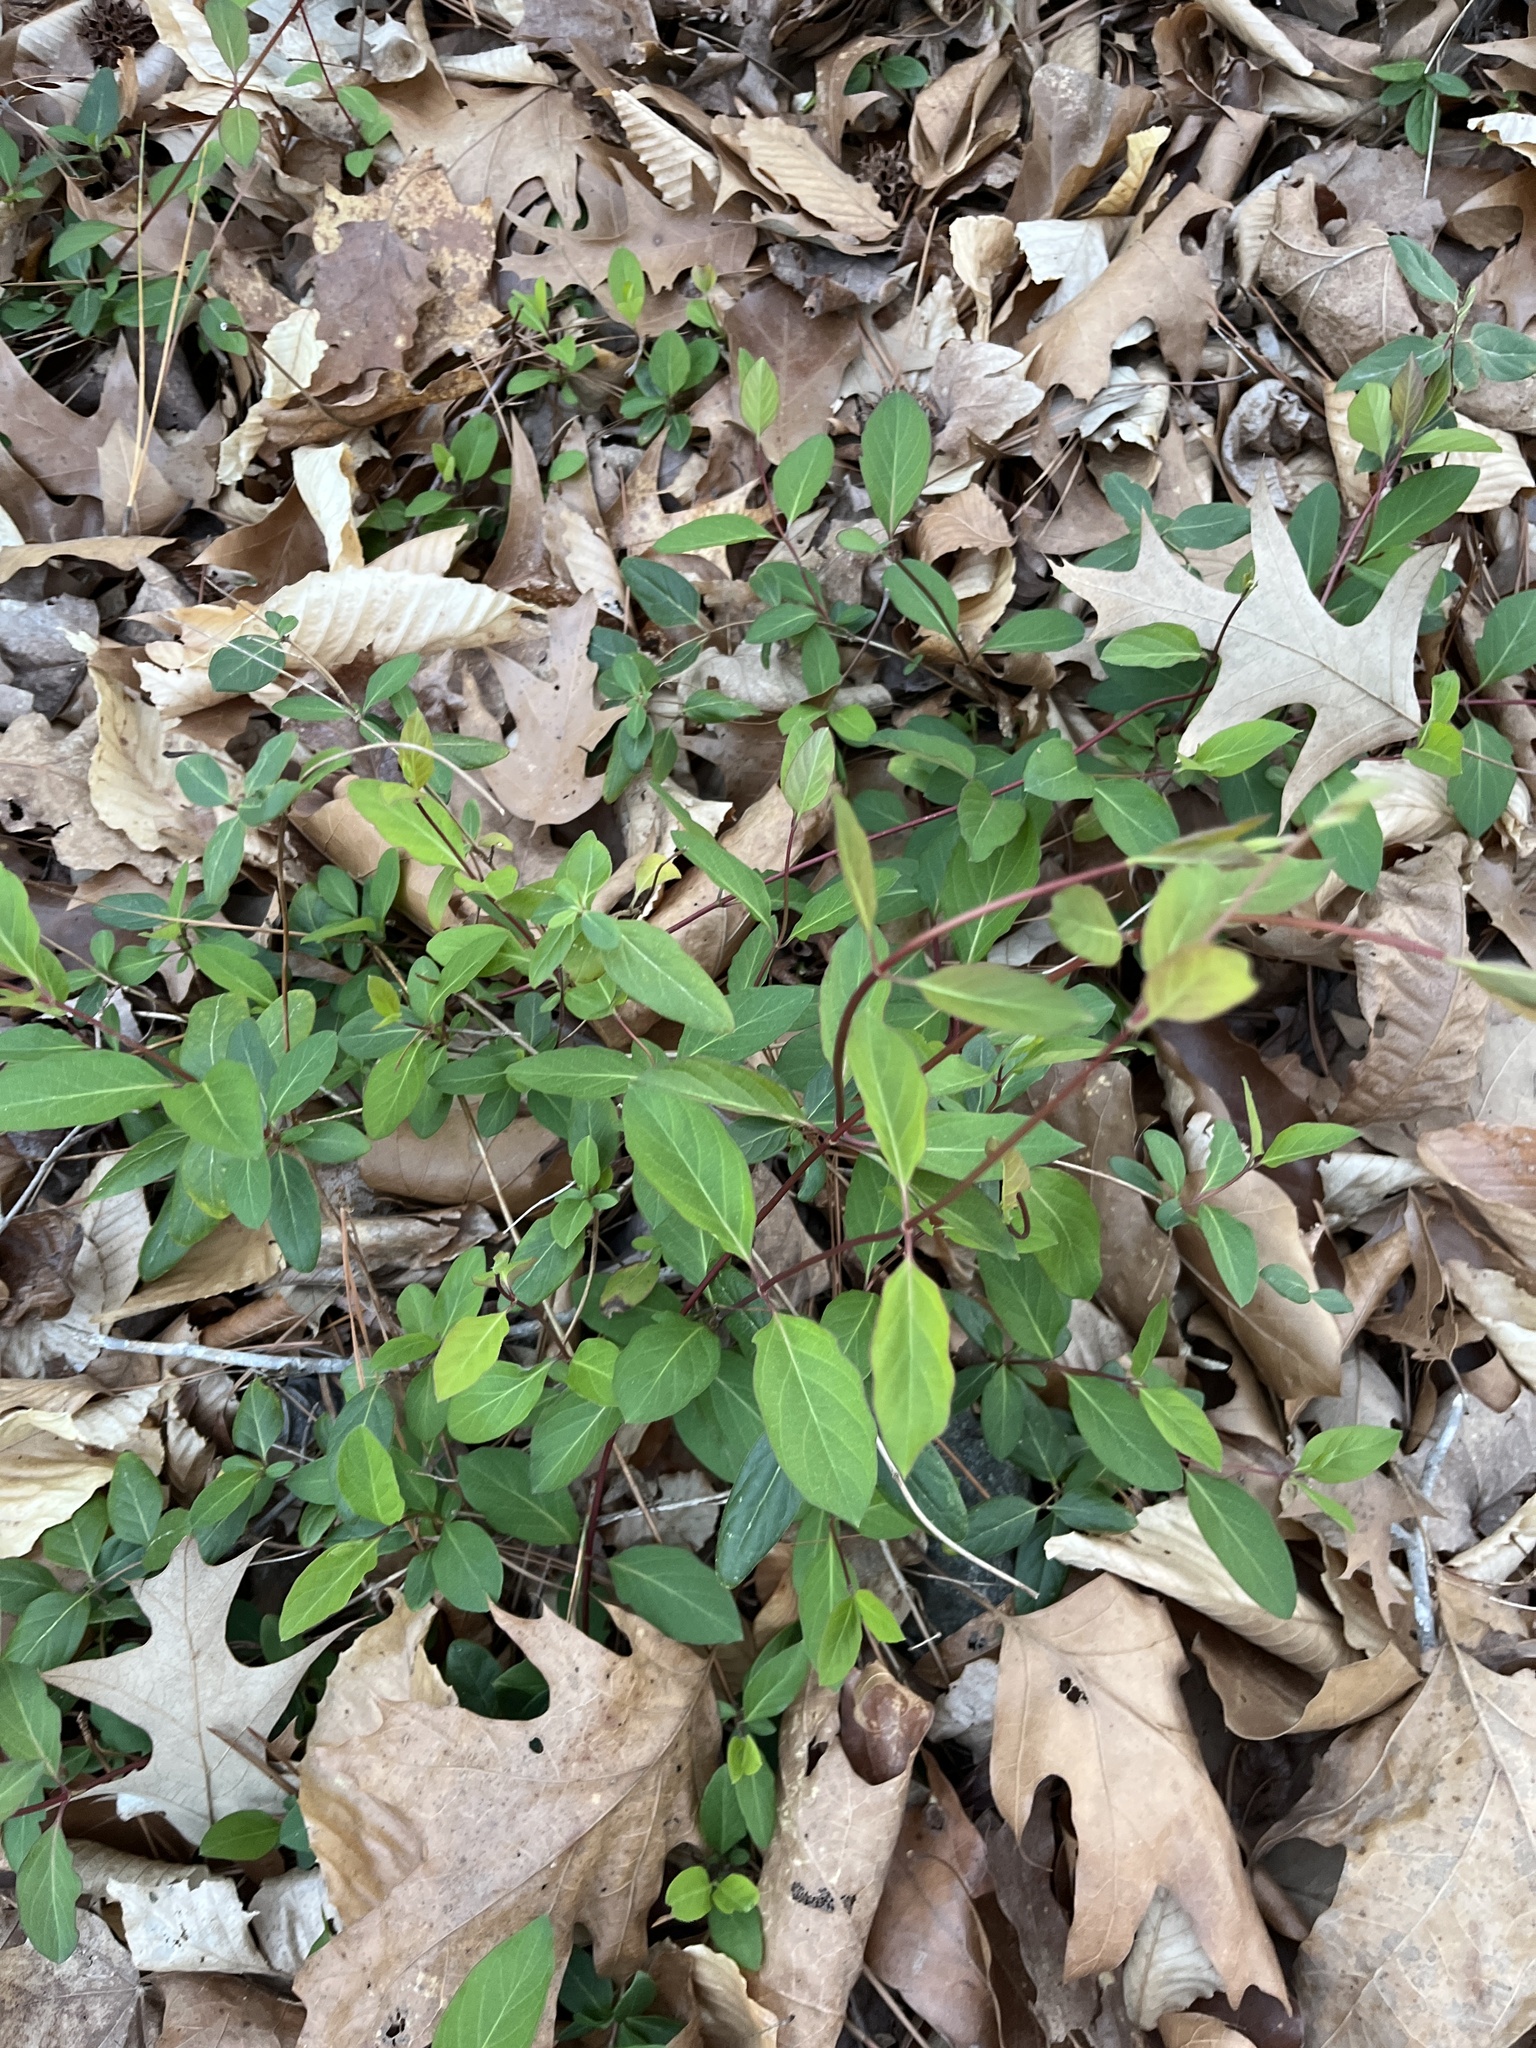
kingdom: Plantae
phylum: Tracheophyta
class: Magnoliopsida
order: Dipsacales
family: Caprifoliaceae
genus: Lonicera
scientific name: Lonicera japonica
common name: Japanese honeysuckle
